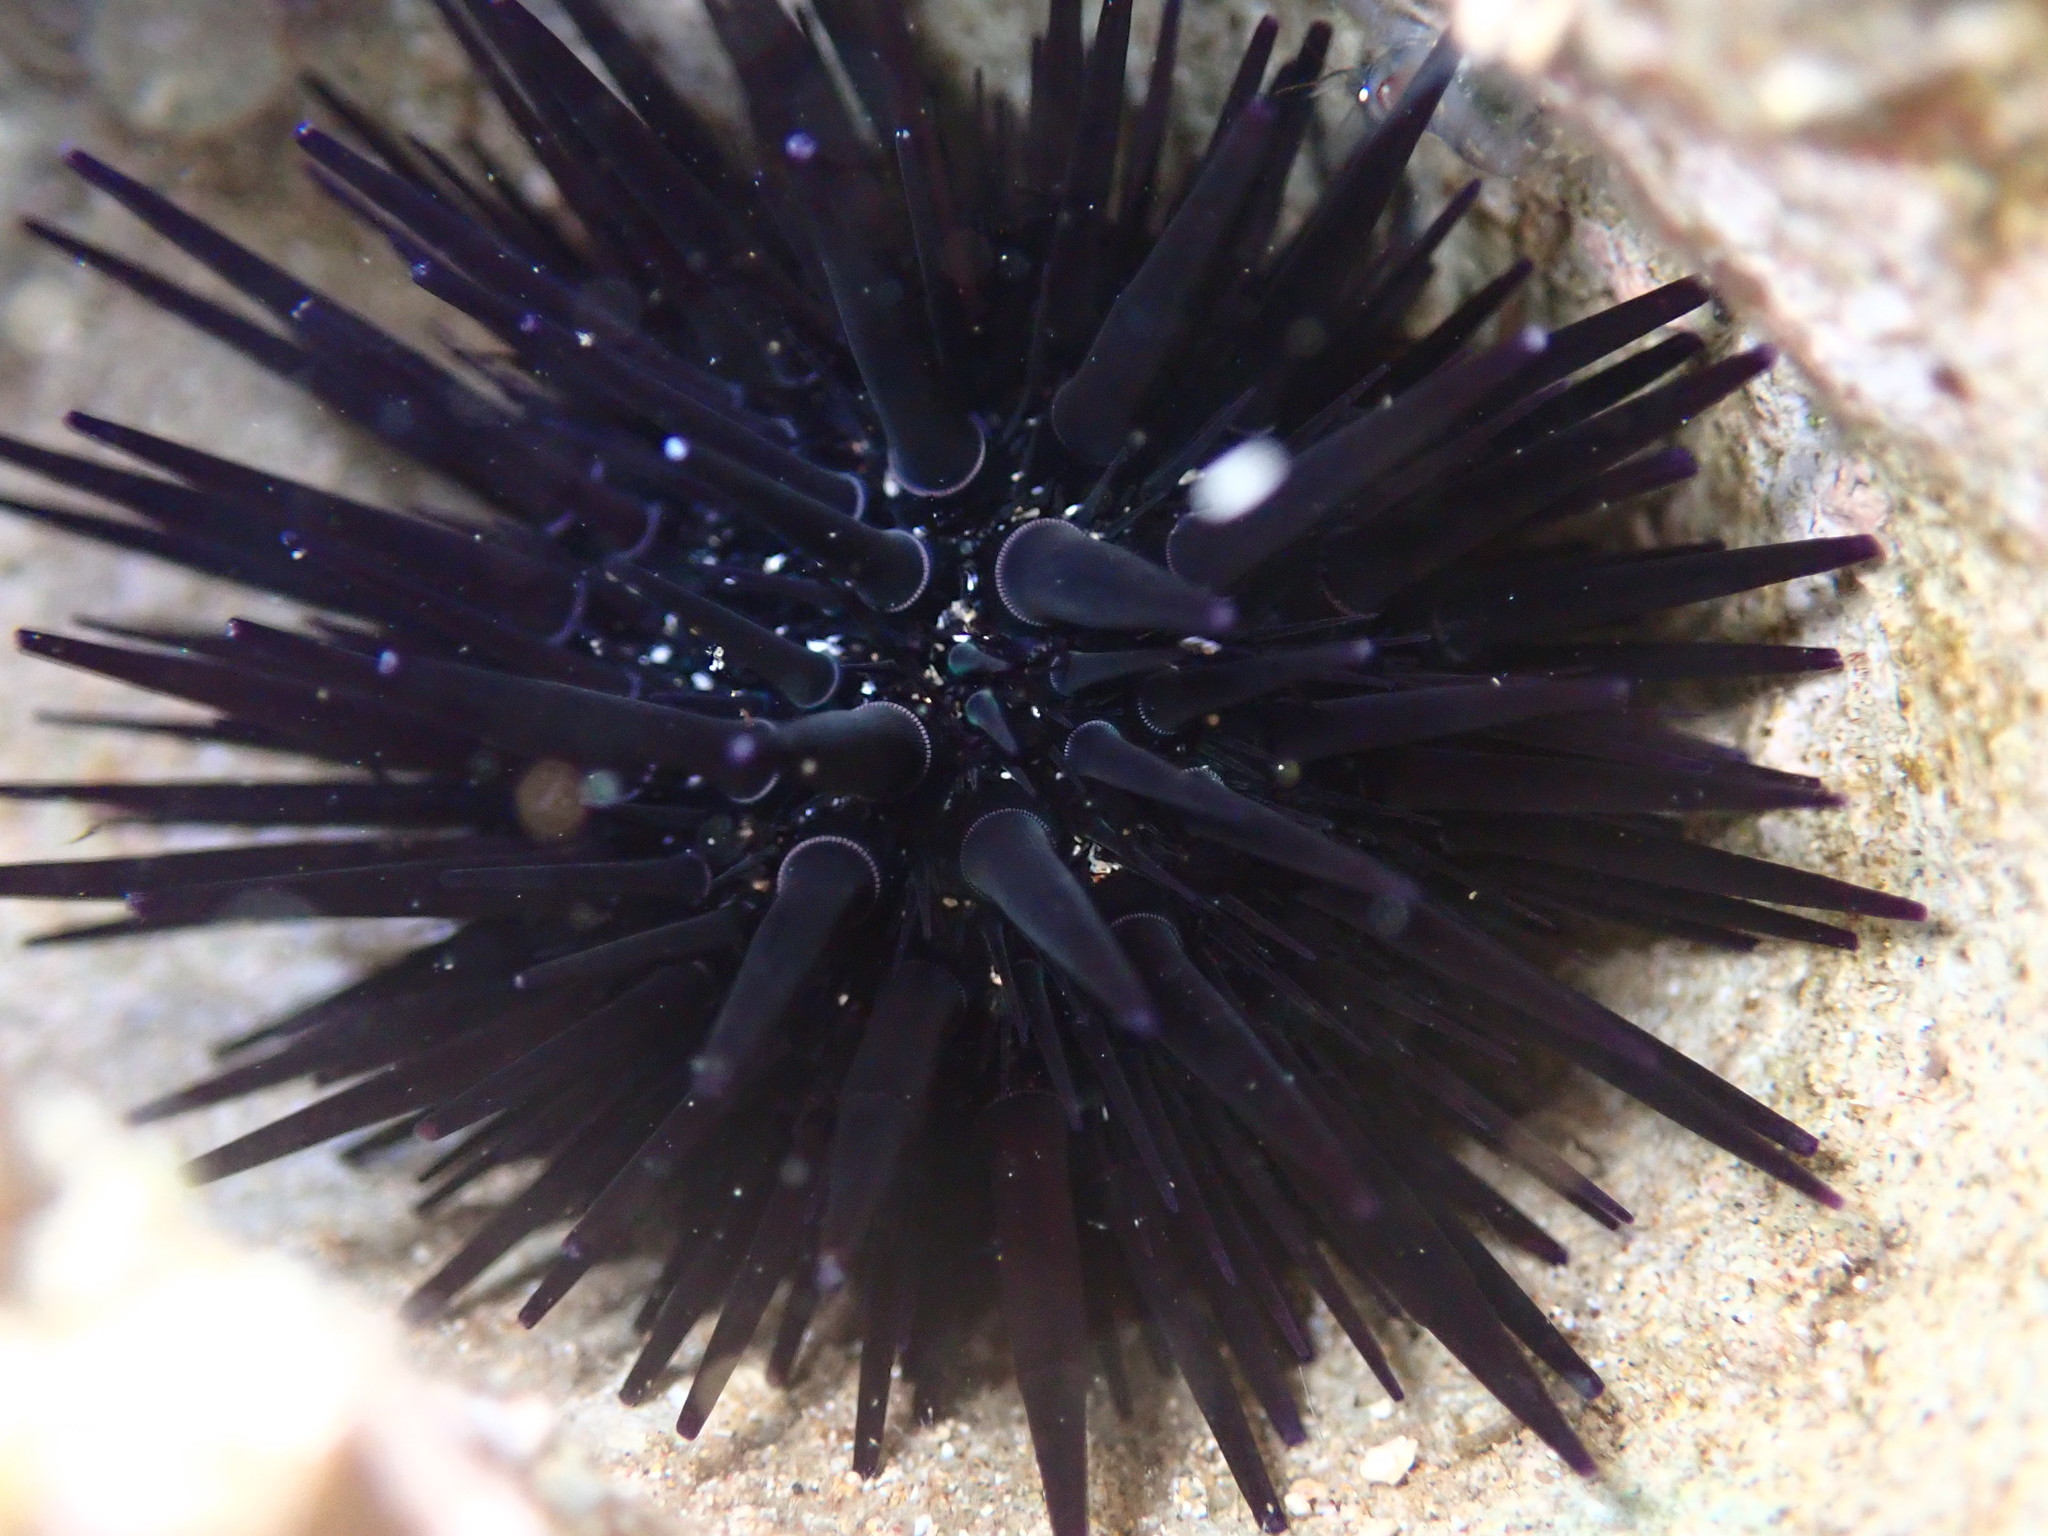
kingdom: Animalia
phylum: Echinodermata
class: Echinoidea
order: Camarodonta
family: Echinometridae
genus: Echinometra
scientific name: Echinometra oblonga
